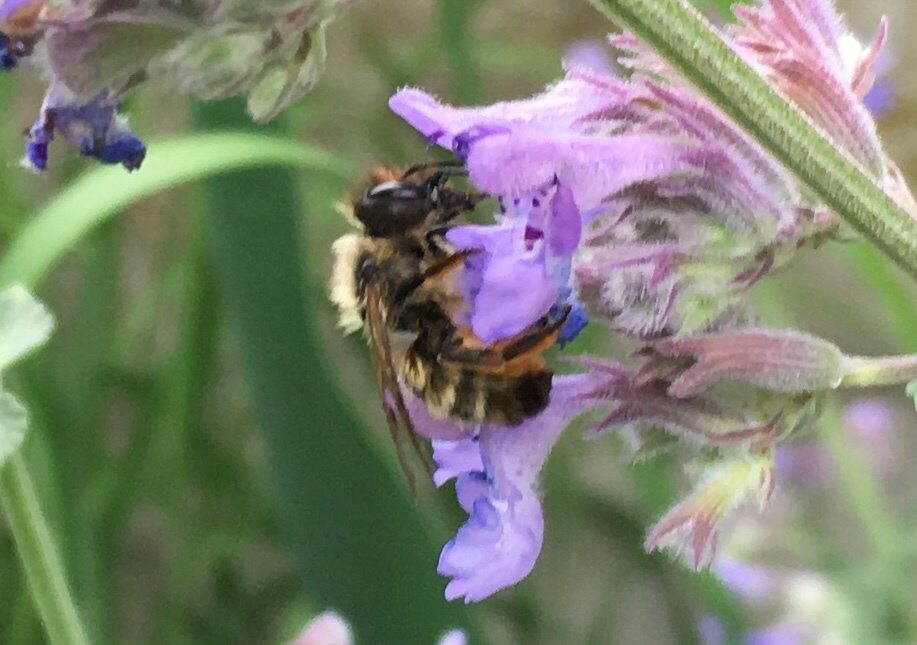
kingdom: Animalia
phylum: Arthropoda
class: Insecta
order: Hymenoptera
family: Megachilidae
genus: Osmia
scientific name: Osmia bicornis
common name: Red mason bee
